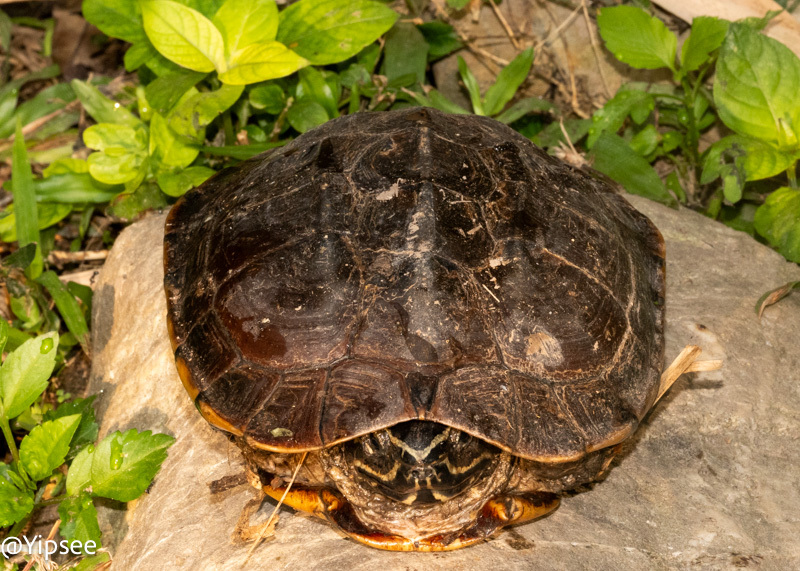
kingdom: Animalia
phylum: Chordata
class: Testudines
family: Geoemydidae
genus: Malayemys
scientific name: Malayemys macrocephala
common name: Malayan snail-eating turtle
